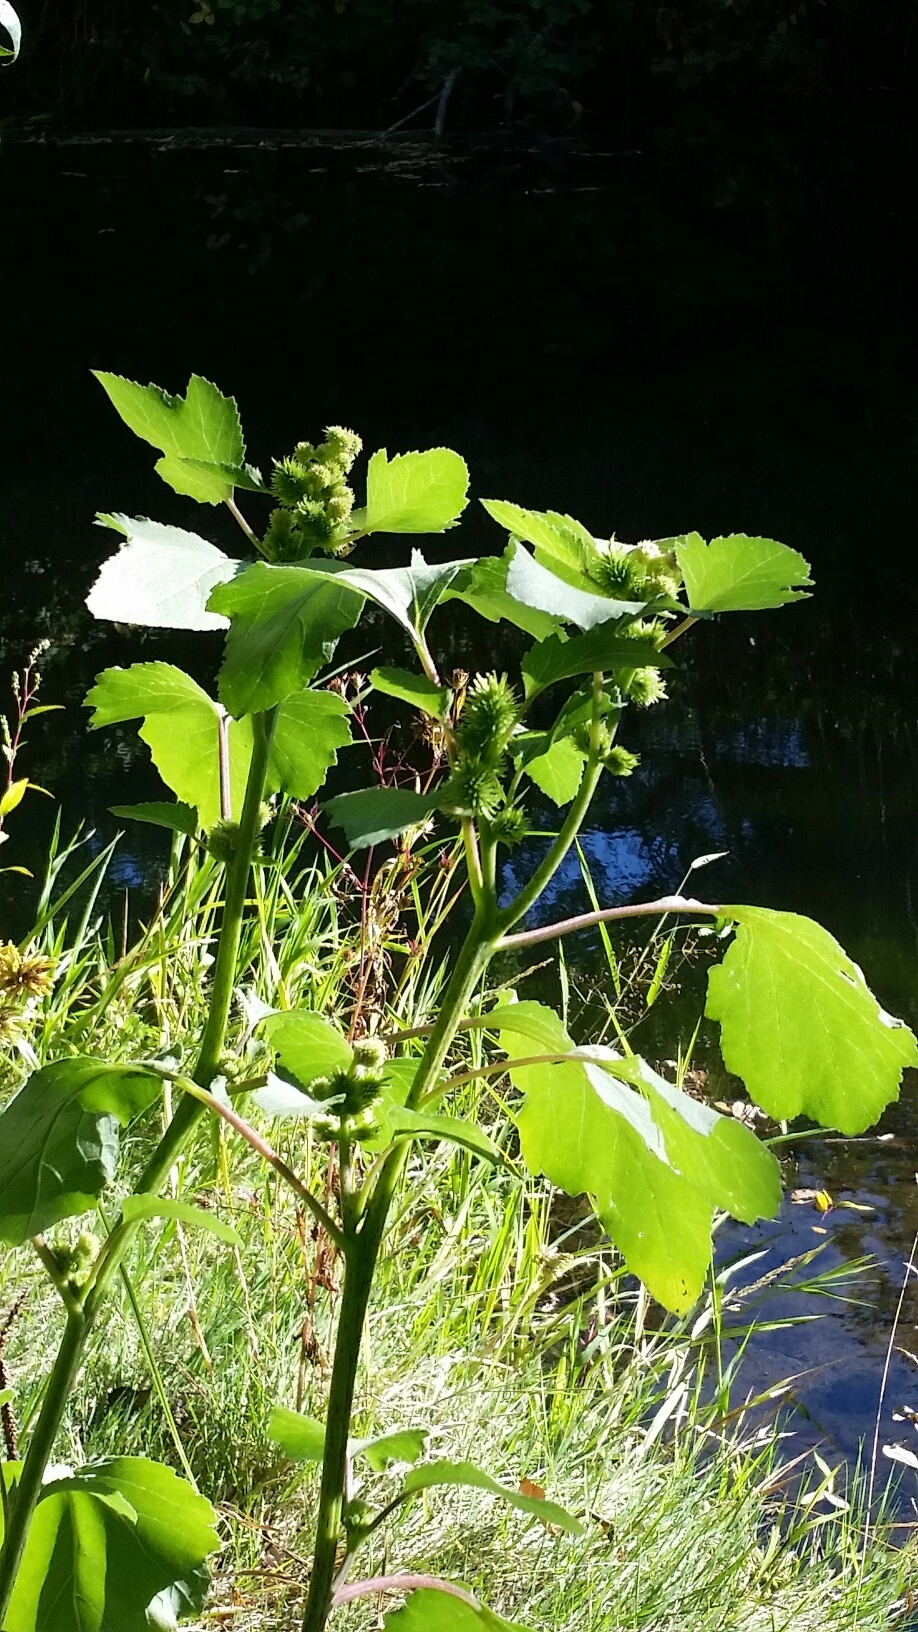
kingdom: Plantae
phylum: Tracheophyta
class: Magnoliopsida
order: Asterales
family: Asteraceae
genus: Xanthium
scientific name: Xanthium strumarium
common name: Rough cocklebur
